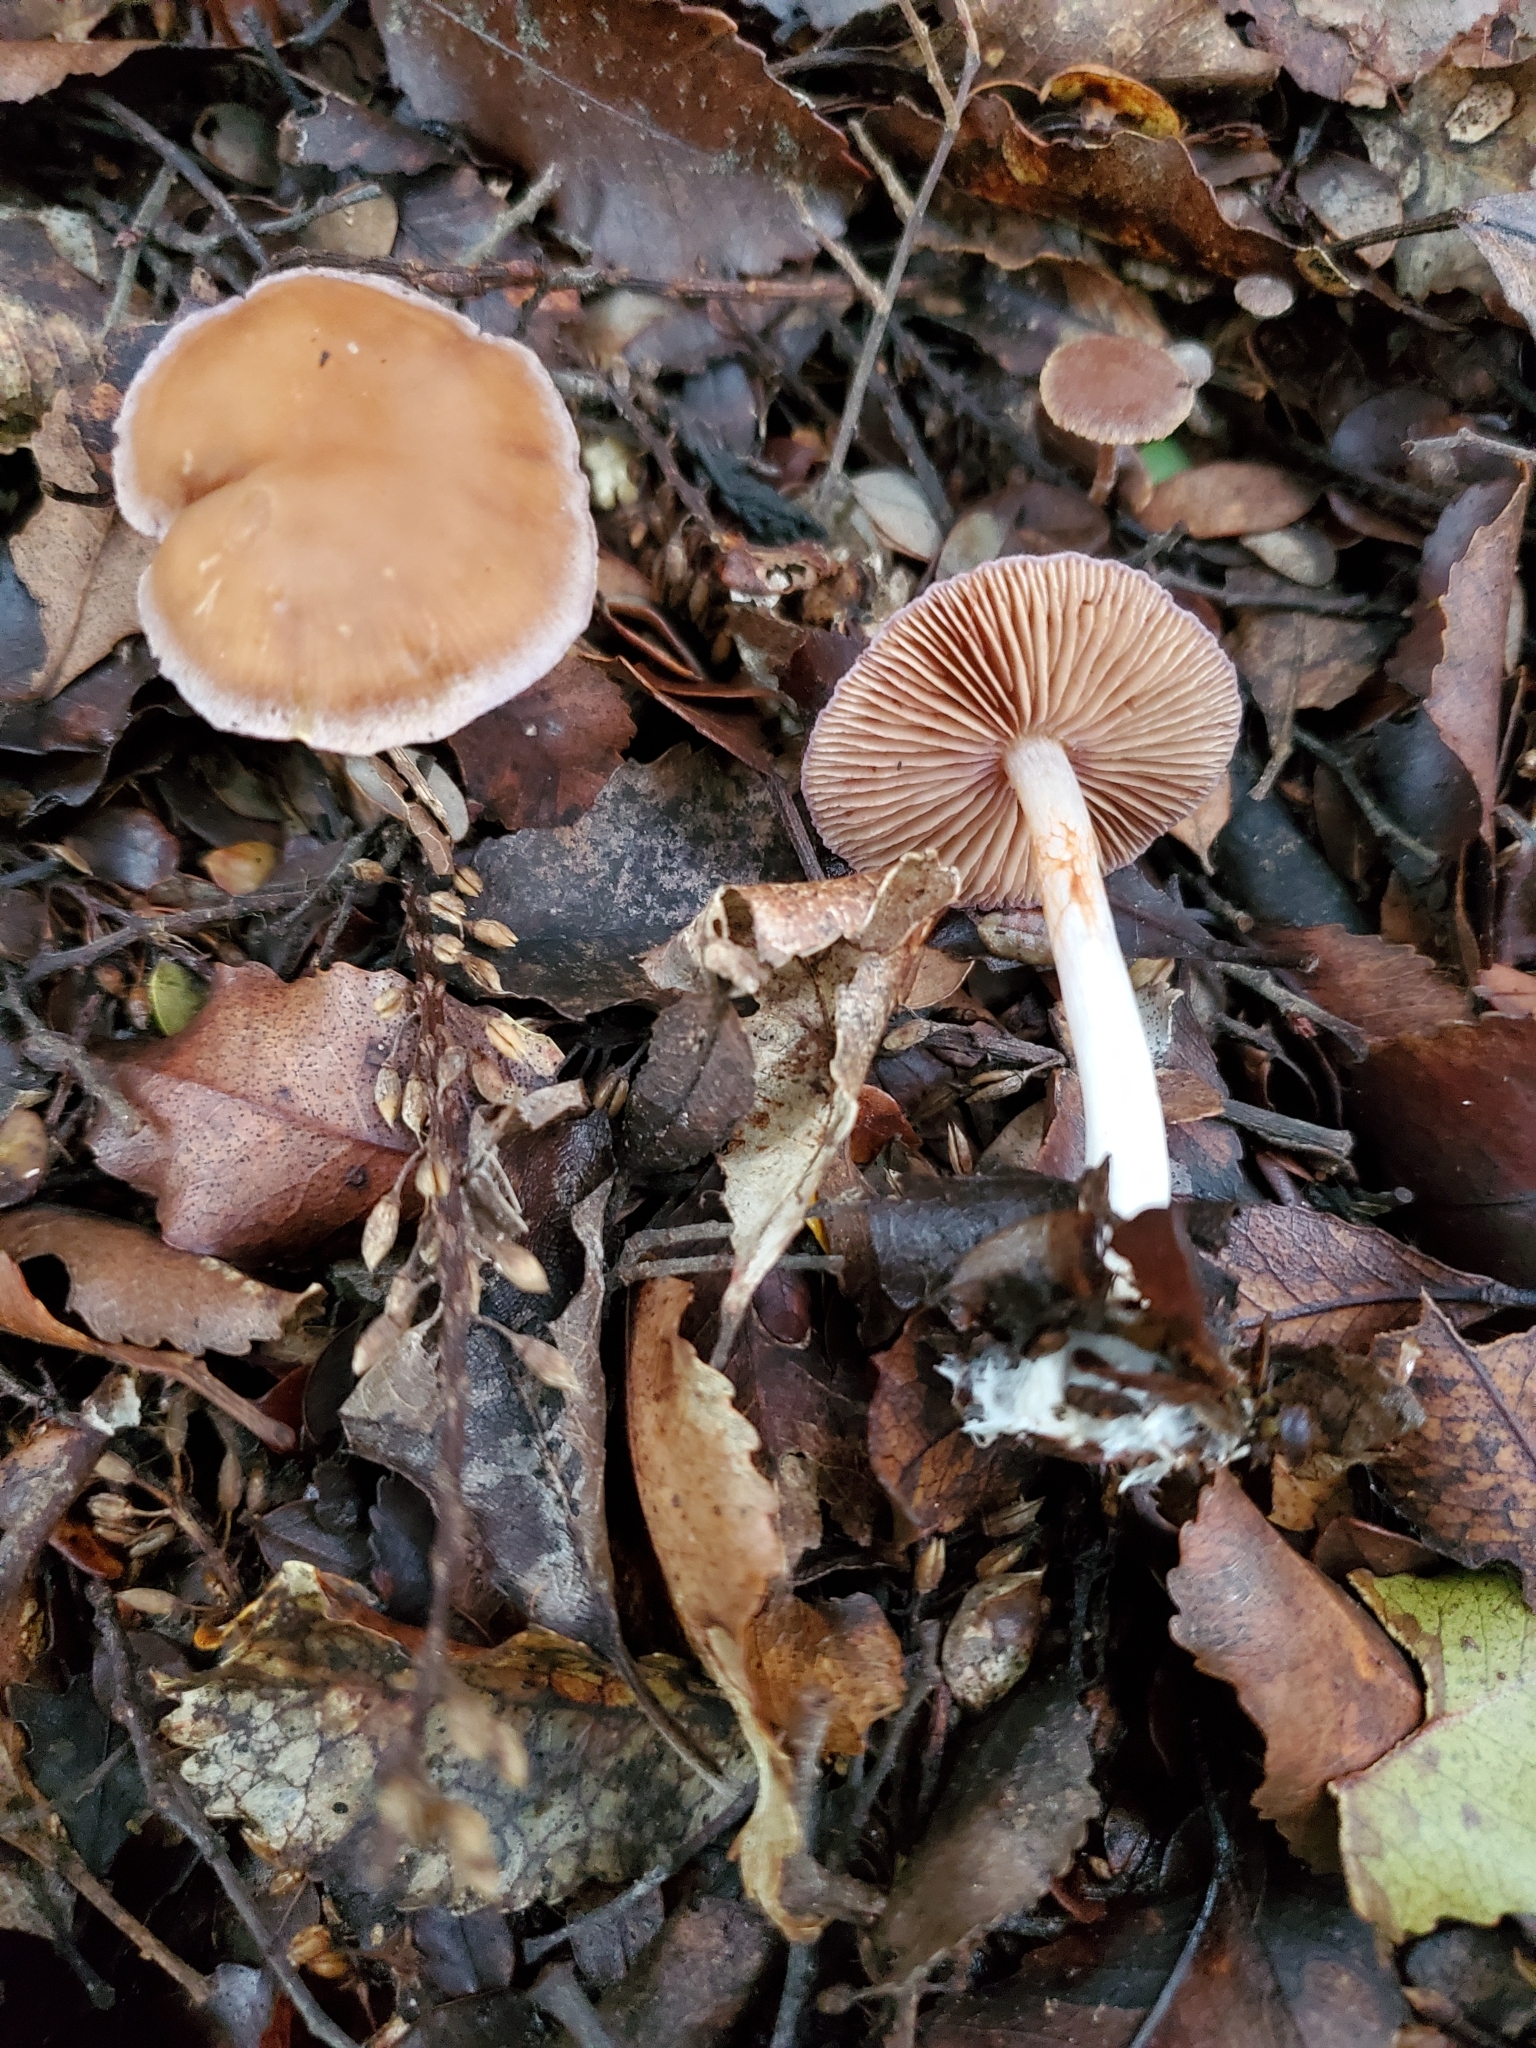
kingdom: Fungi
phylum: Basidiomycota
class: Agaricomycetes
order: Agaricales
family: Cortinariaceae
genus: Cortinarius
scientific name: Cortinarius saturniorum
